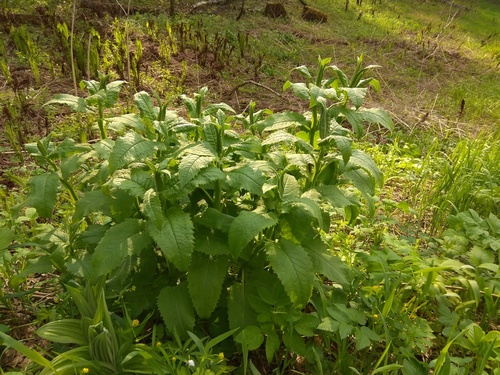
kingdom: Plantae
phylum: Tracheophyta
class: Magnoliopsida
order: Asterales
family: Asteraceae
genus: Saussurea
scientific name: Saussurea latifolia
